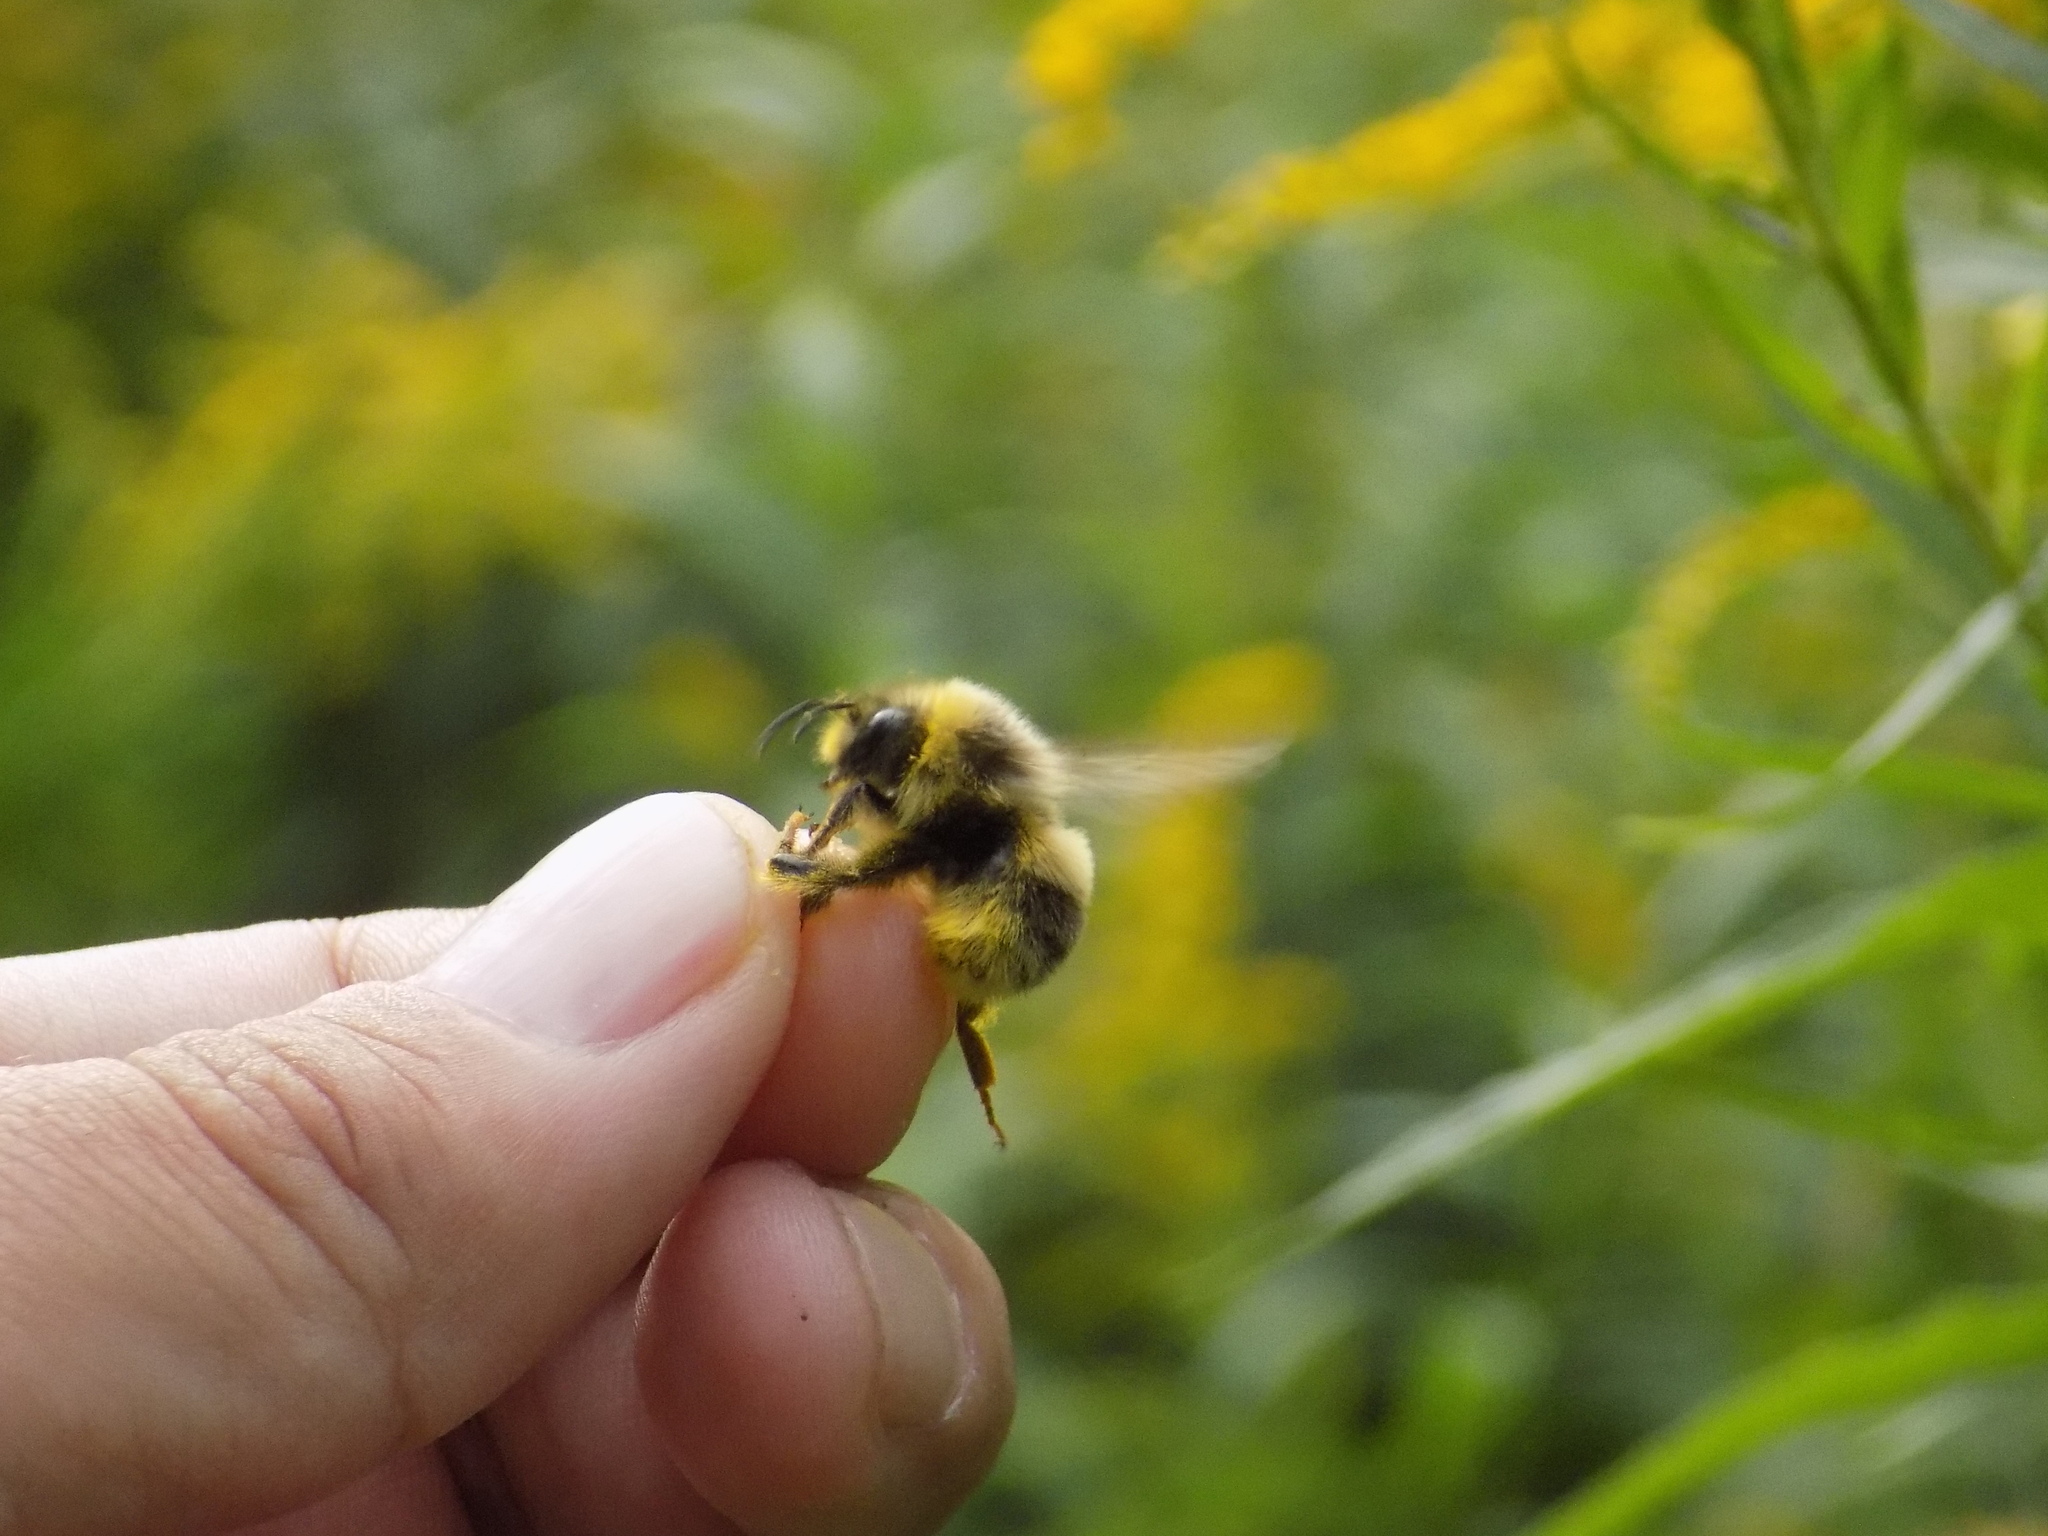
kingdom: Animalia
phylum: Arthropoda
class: Insecta
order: Hymenoptera
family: Apidae
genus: Bombus
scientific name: Bombus lucorum
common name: White-tailed bumblebee
